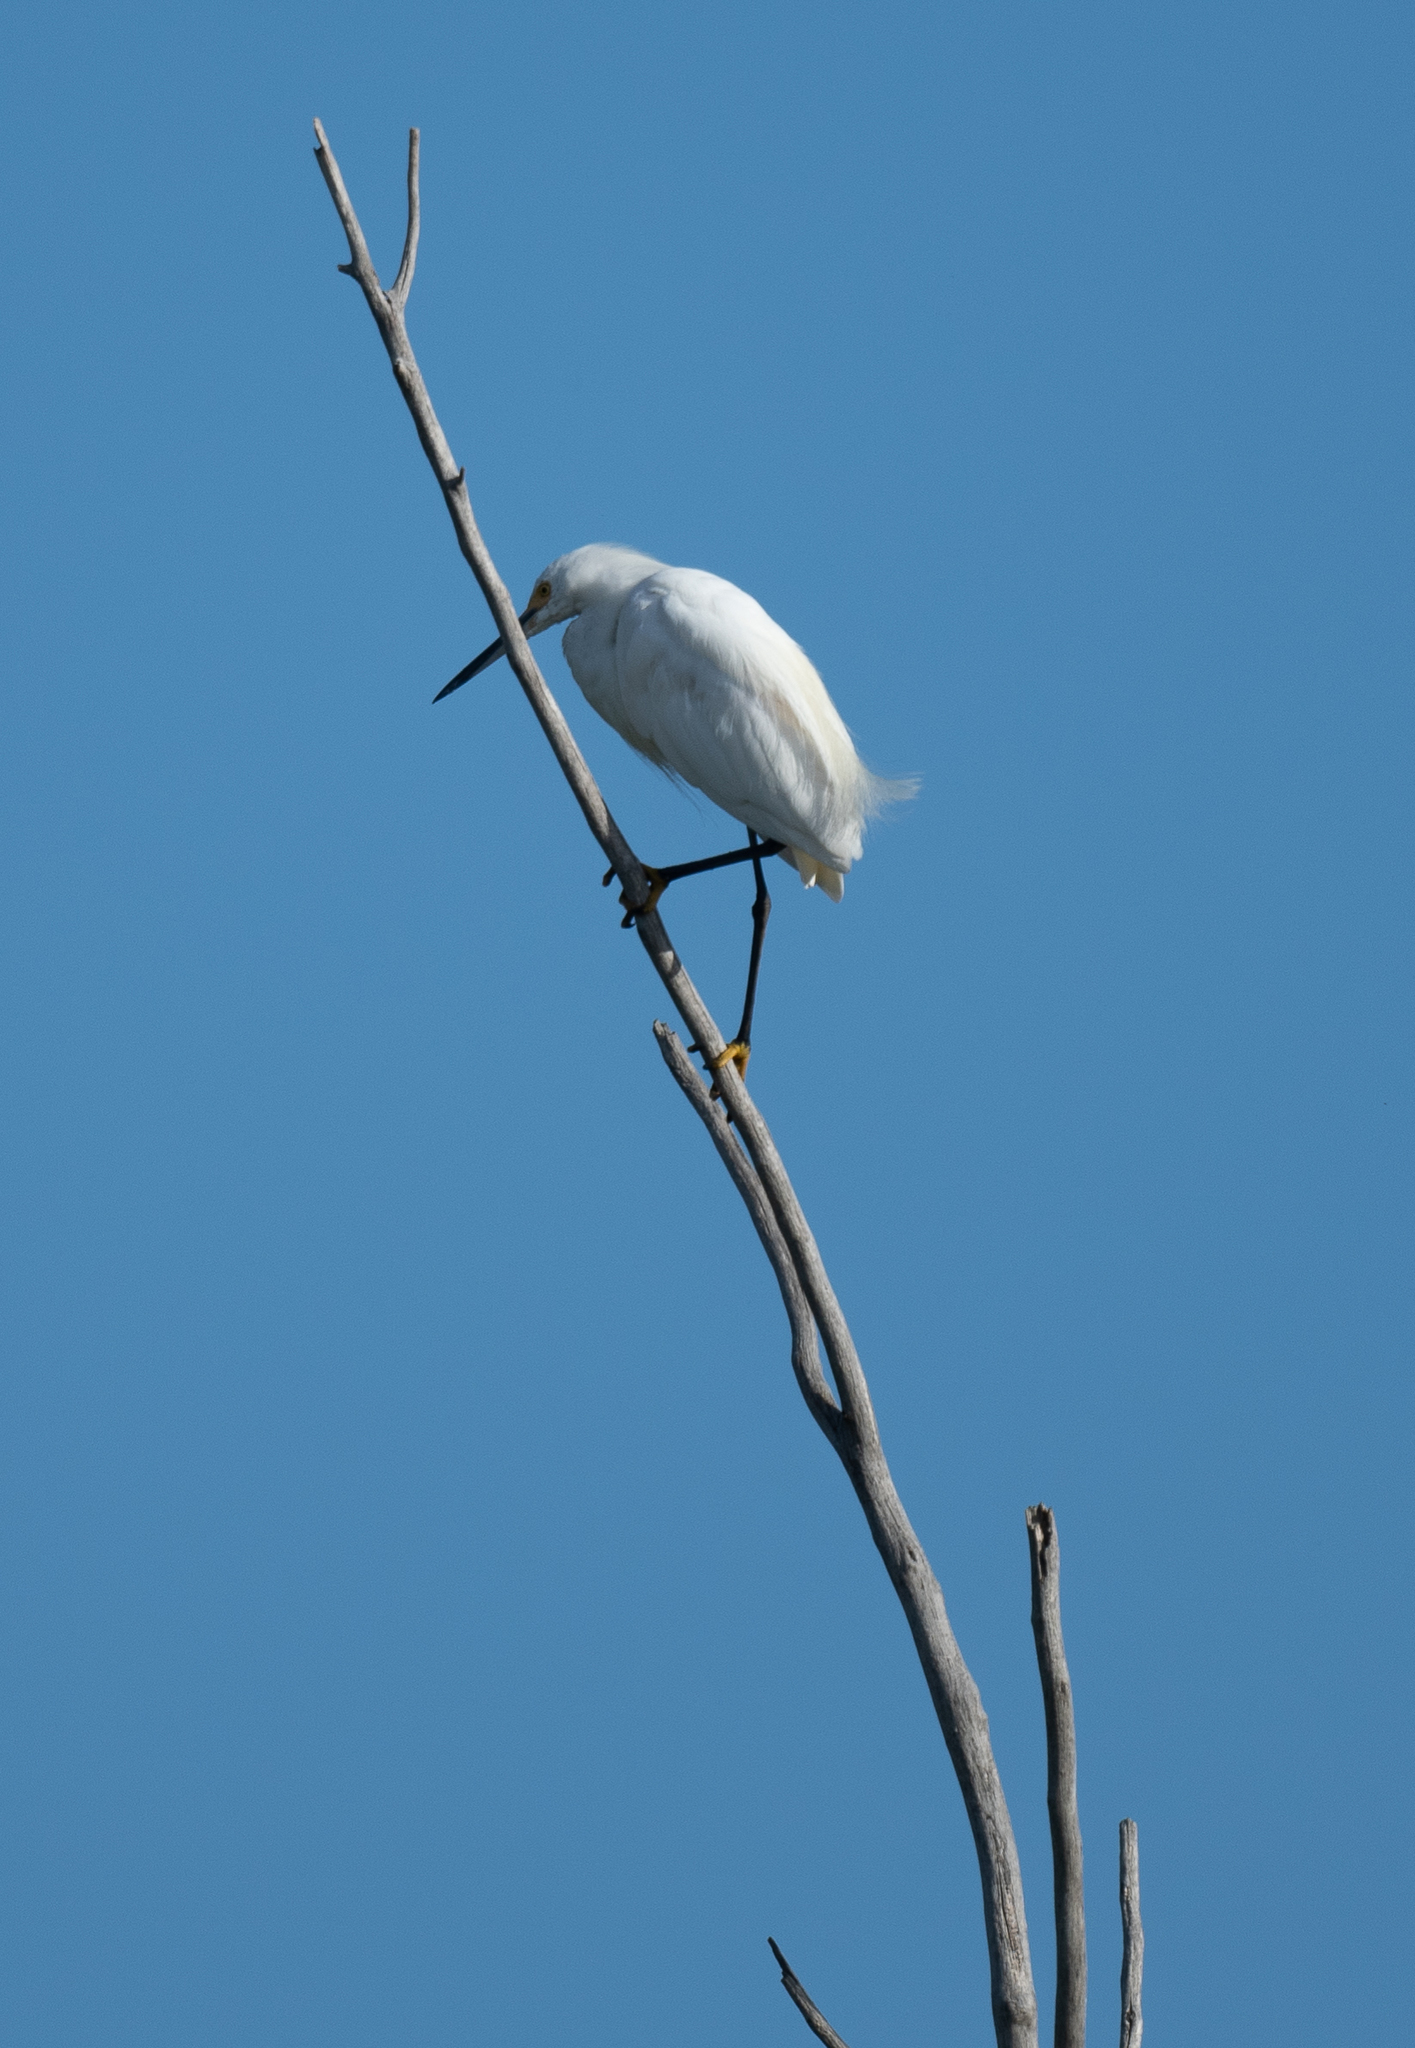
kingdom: Animalia
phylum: Chordata
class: Aves
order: Pelecaniformes
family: Ardeidae
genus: Egretta
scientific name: Egretta thula
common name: Snowy egret
